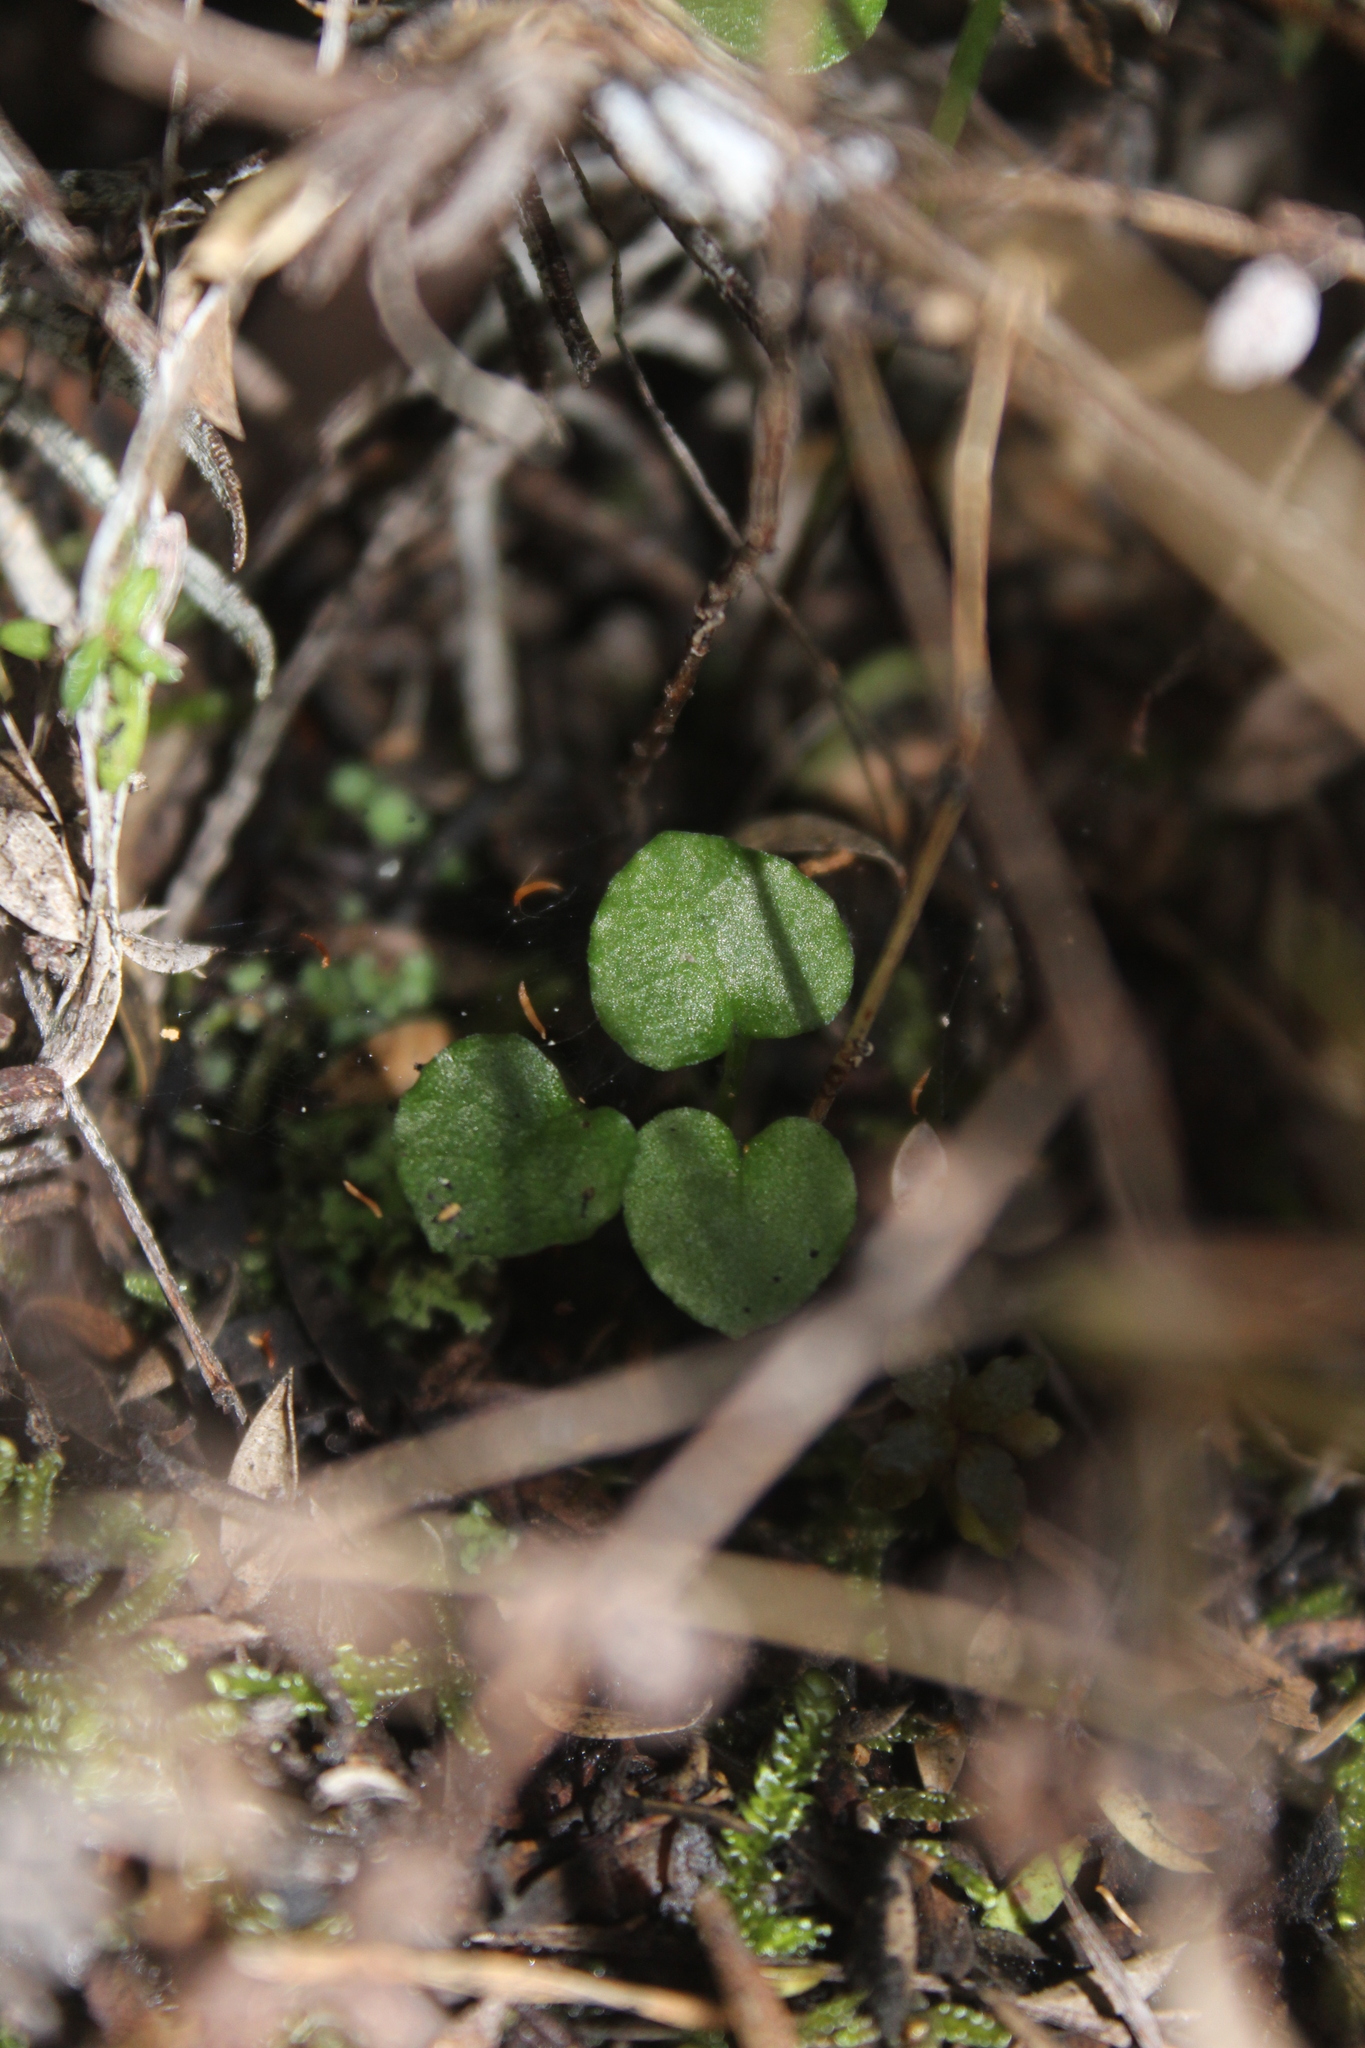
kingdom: Plantae
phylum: Tracheophyta
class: Liliopsida
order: Asparagales
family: Orchidaceae
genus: Pterostylis
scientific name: Pterostylis alobula
